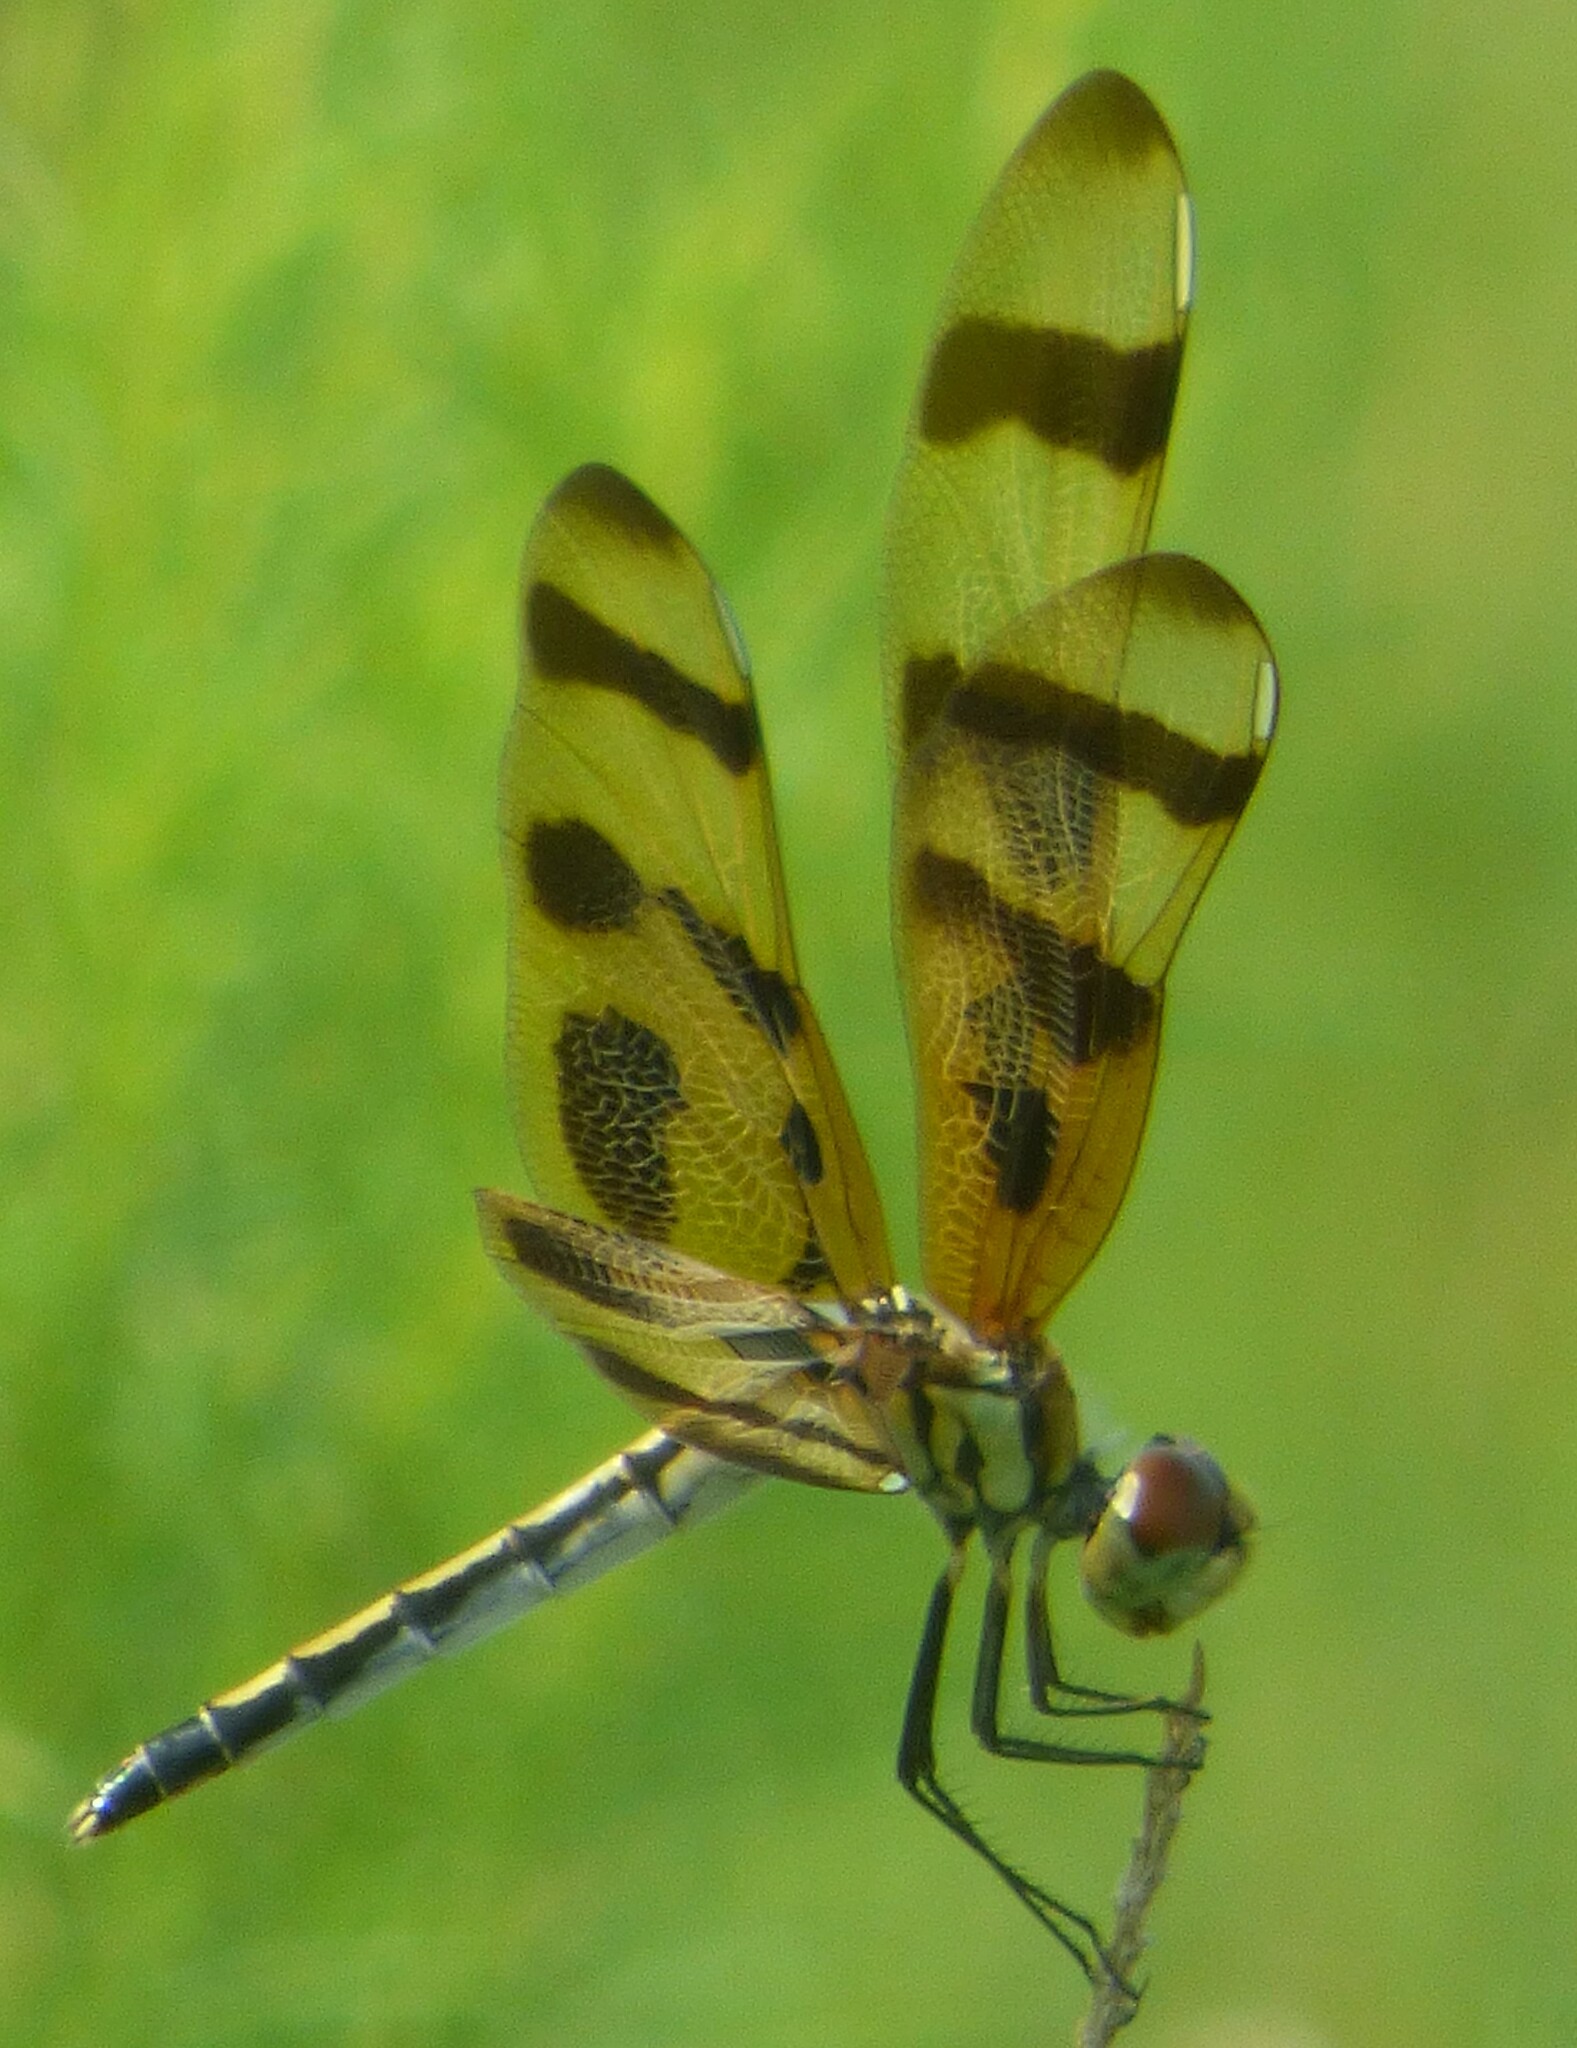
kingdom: Animalia
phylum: Arthropoda
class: Insecta
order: Odonata
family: Libellulidae
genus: Celithemis
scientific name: Celithemis eponina
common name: Halloween pennant
